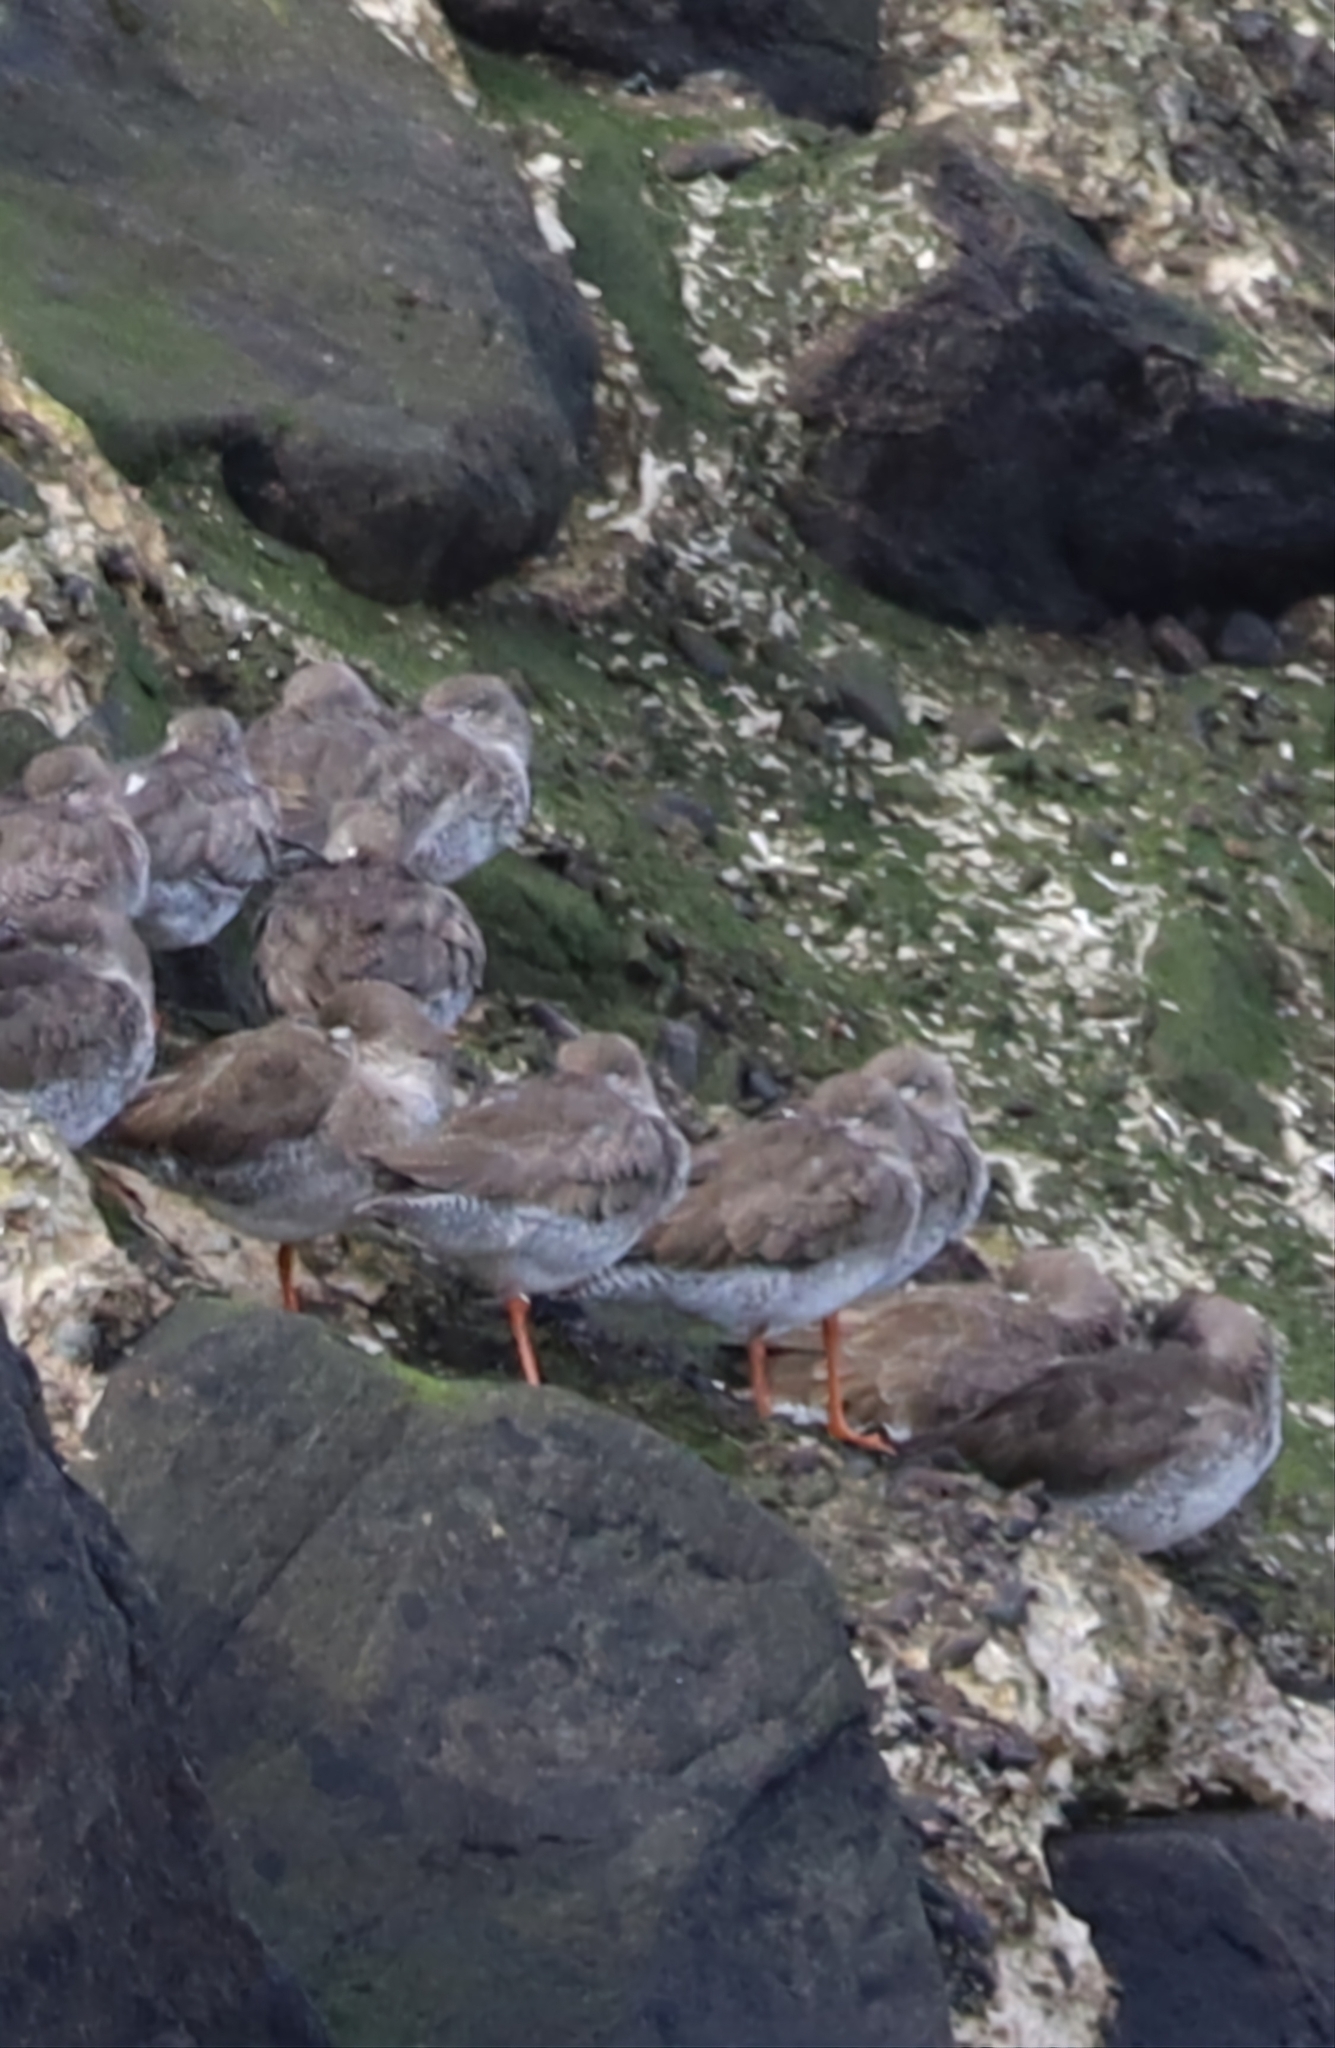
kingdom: Animalia
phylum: Chordata
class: Aves
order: Charadriiformes
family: Scolopacidae
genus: Tringa
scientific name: Tringa totanus
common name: Common redshank
